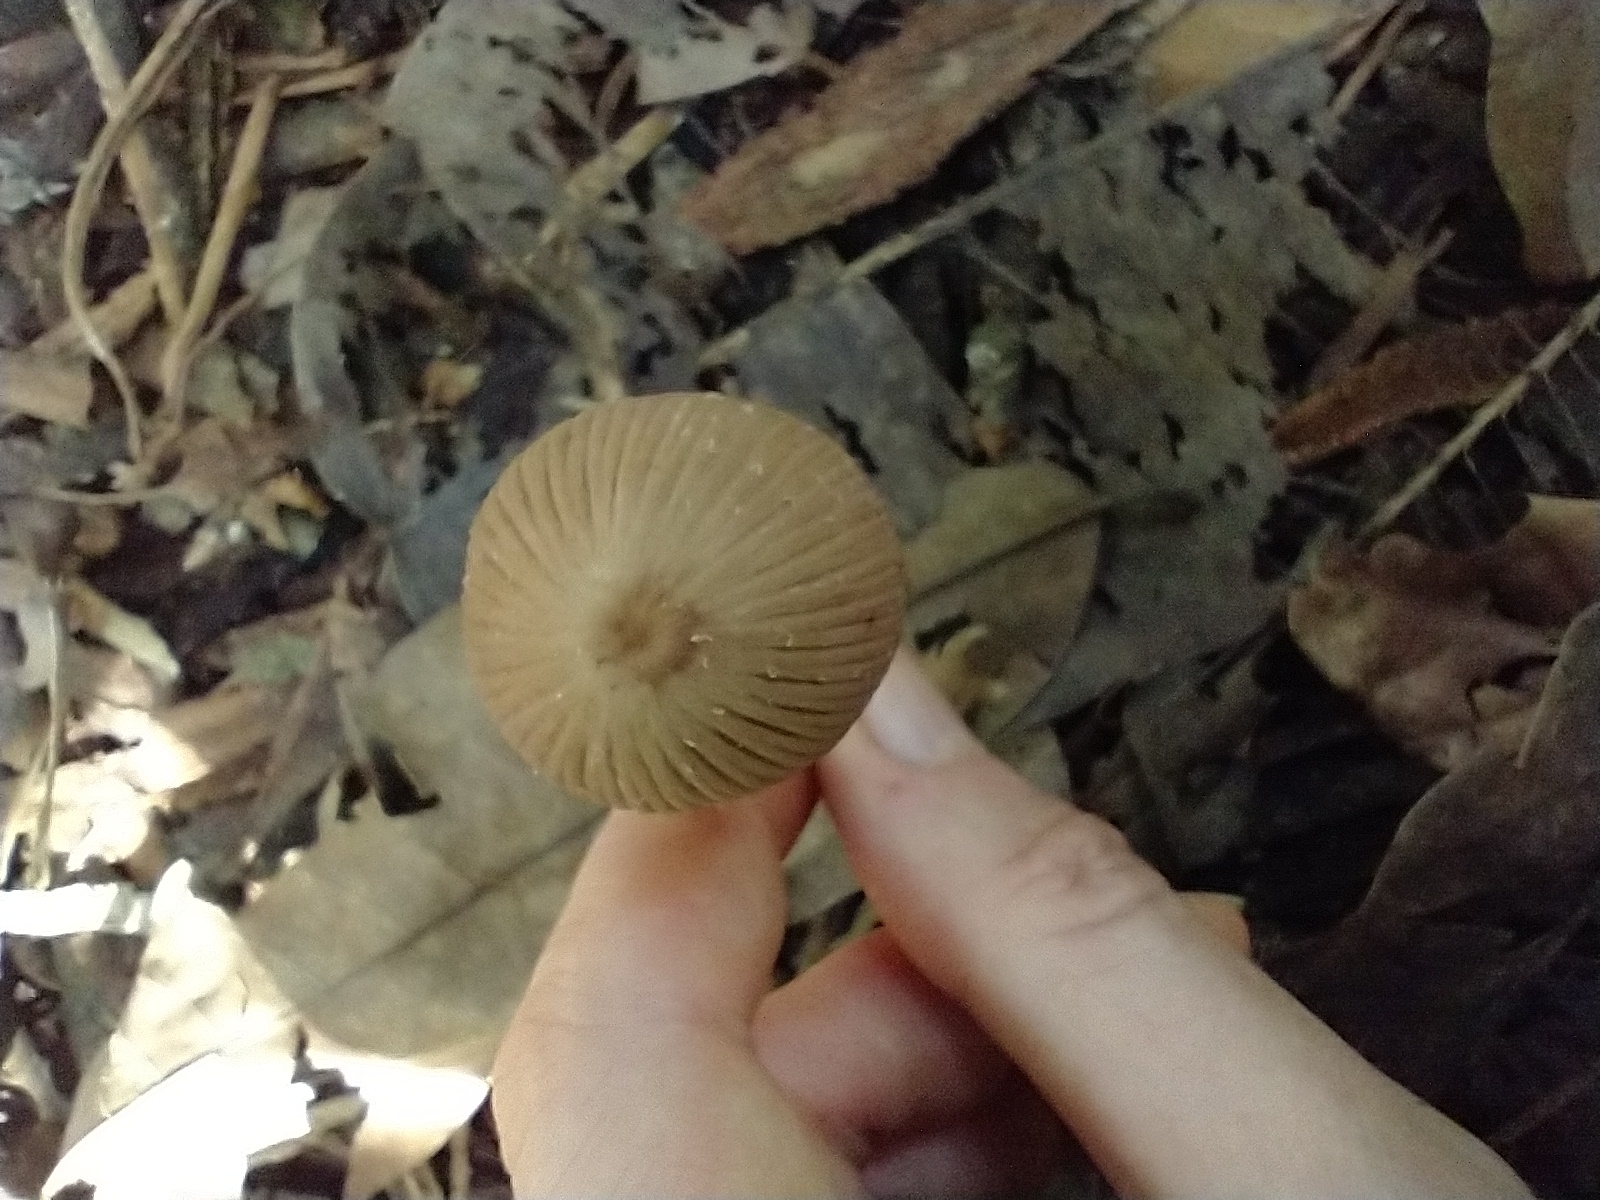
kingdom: Fungi
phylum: Basidiomycota
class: Agaricomycetes
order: Agaricales
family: Agaricaceae
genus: Coprinus
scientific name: Coprinus leucostictus
